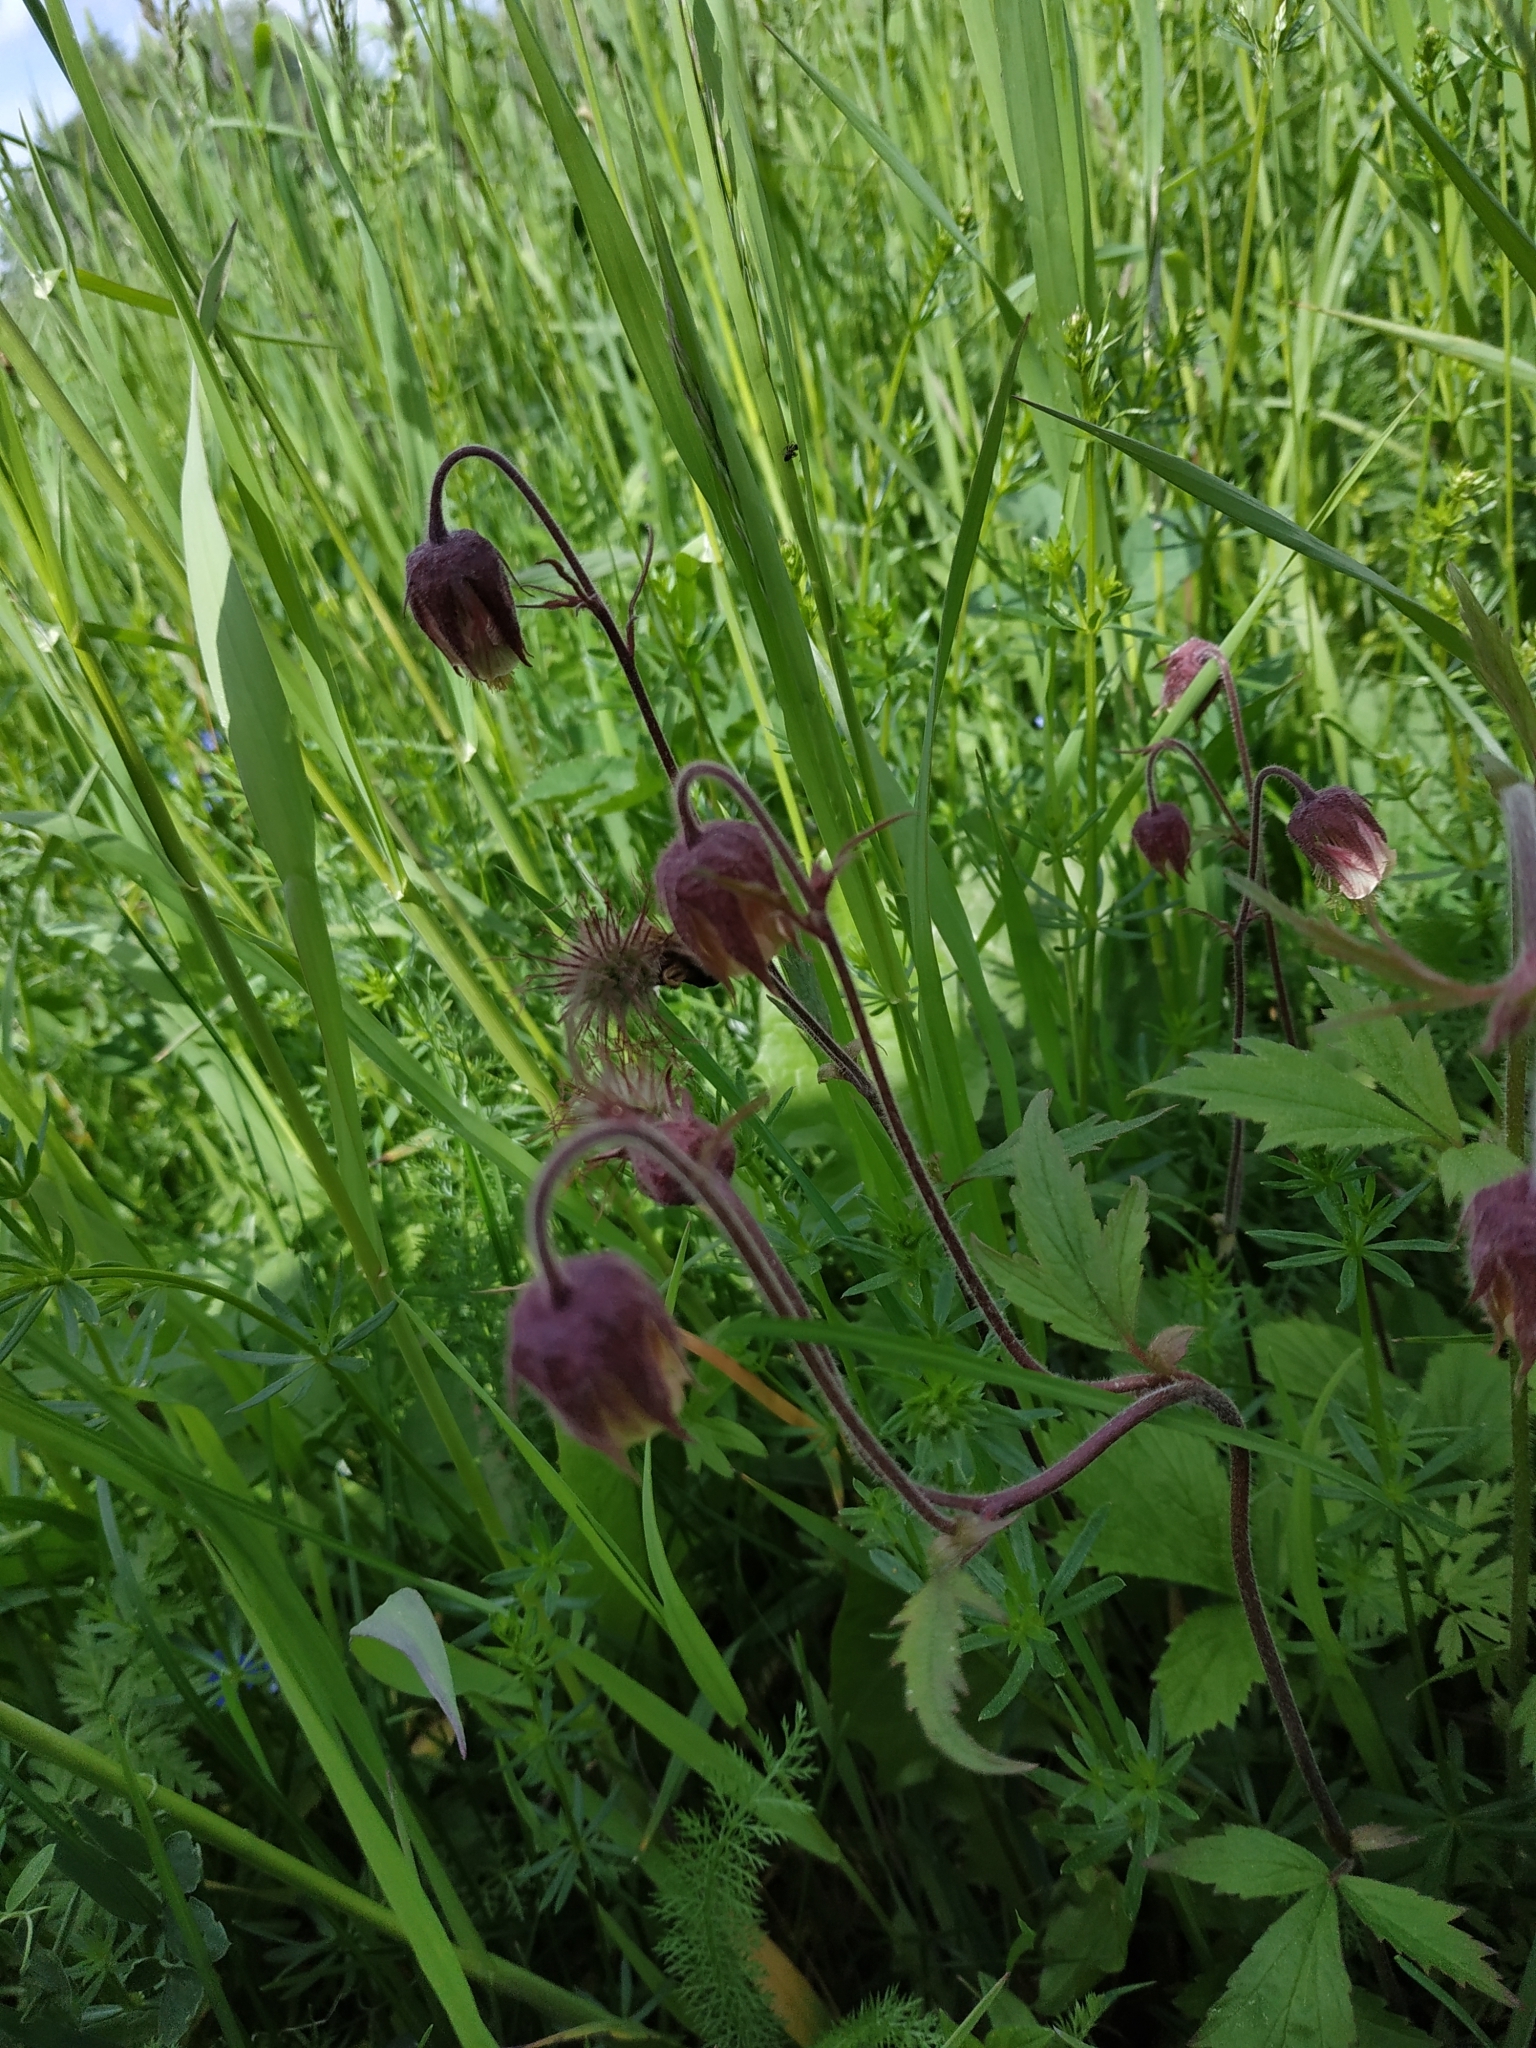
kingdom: Plantae
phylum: Tracheophyta
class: Magnoliopsida
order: Rosales
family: Rosaceae
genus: Geum
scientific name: Geum rivale
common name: Water avens
